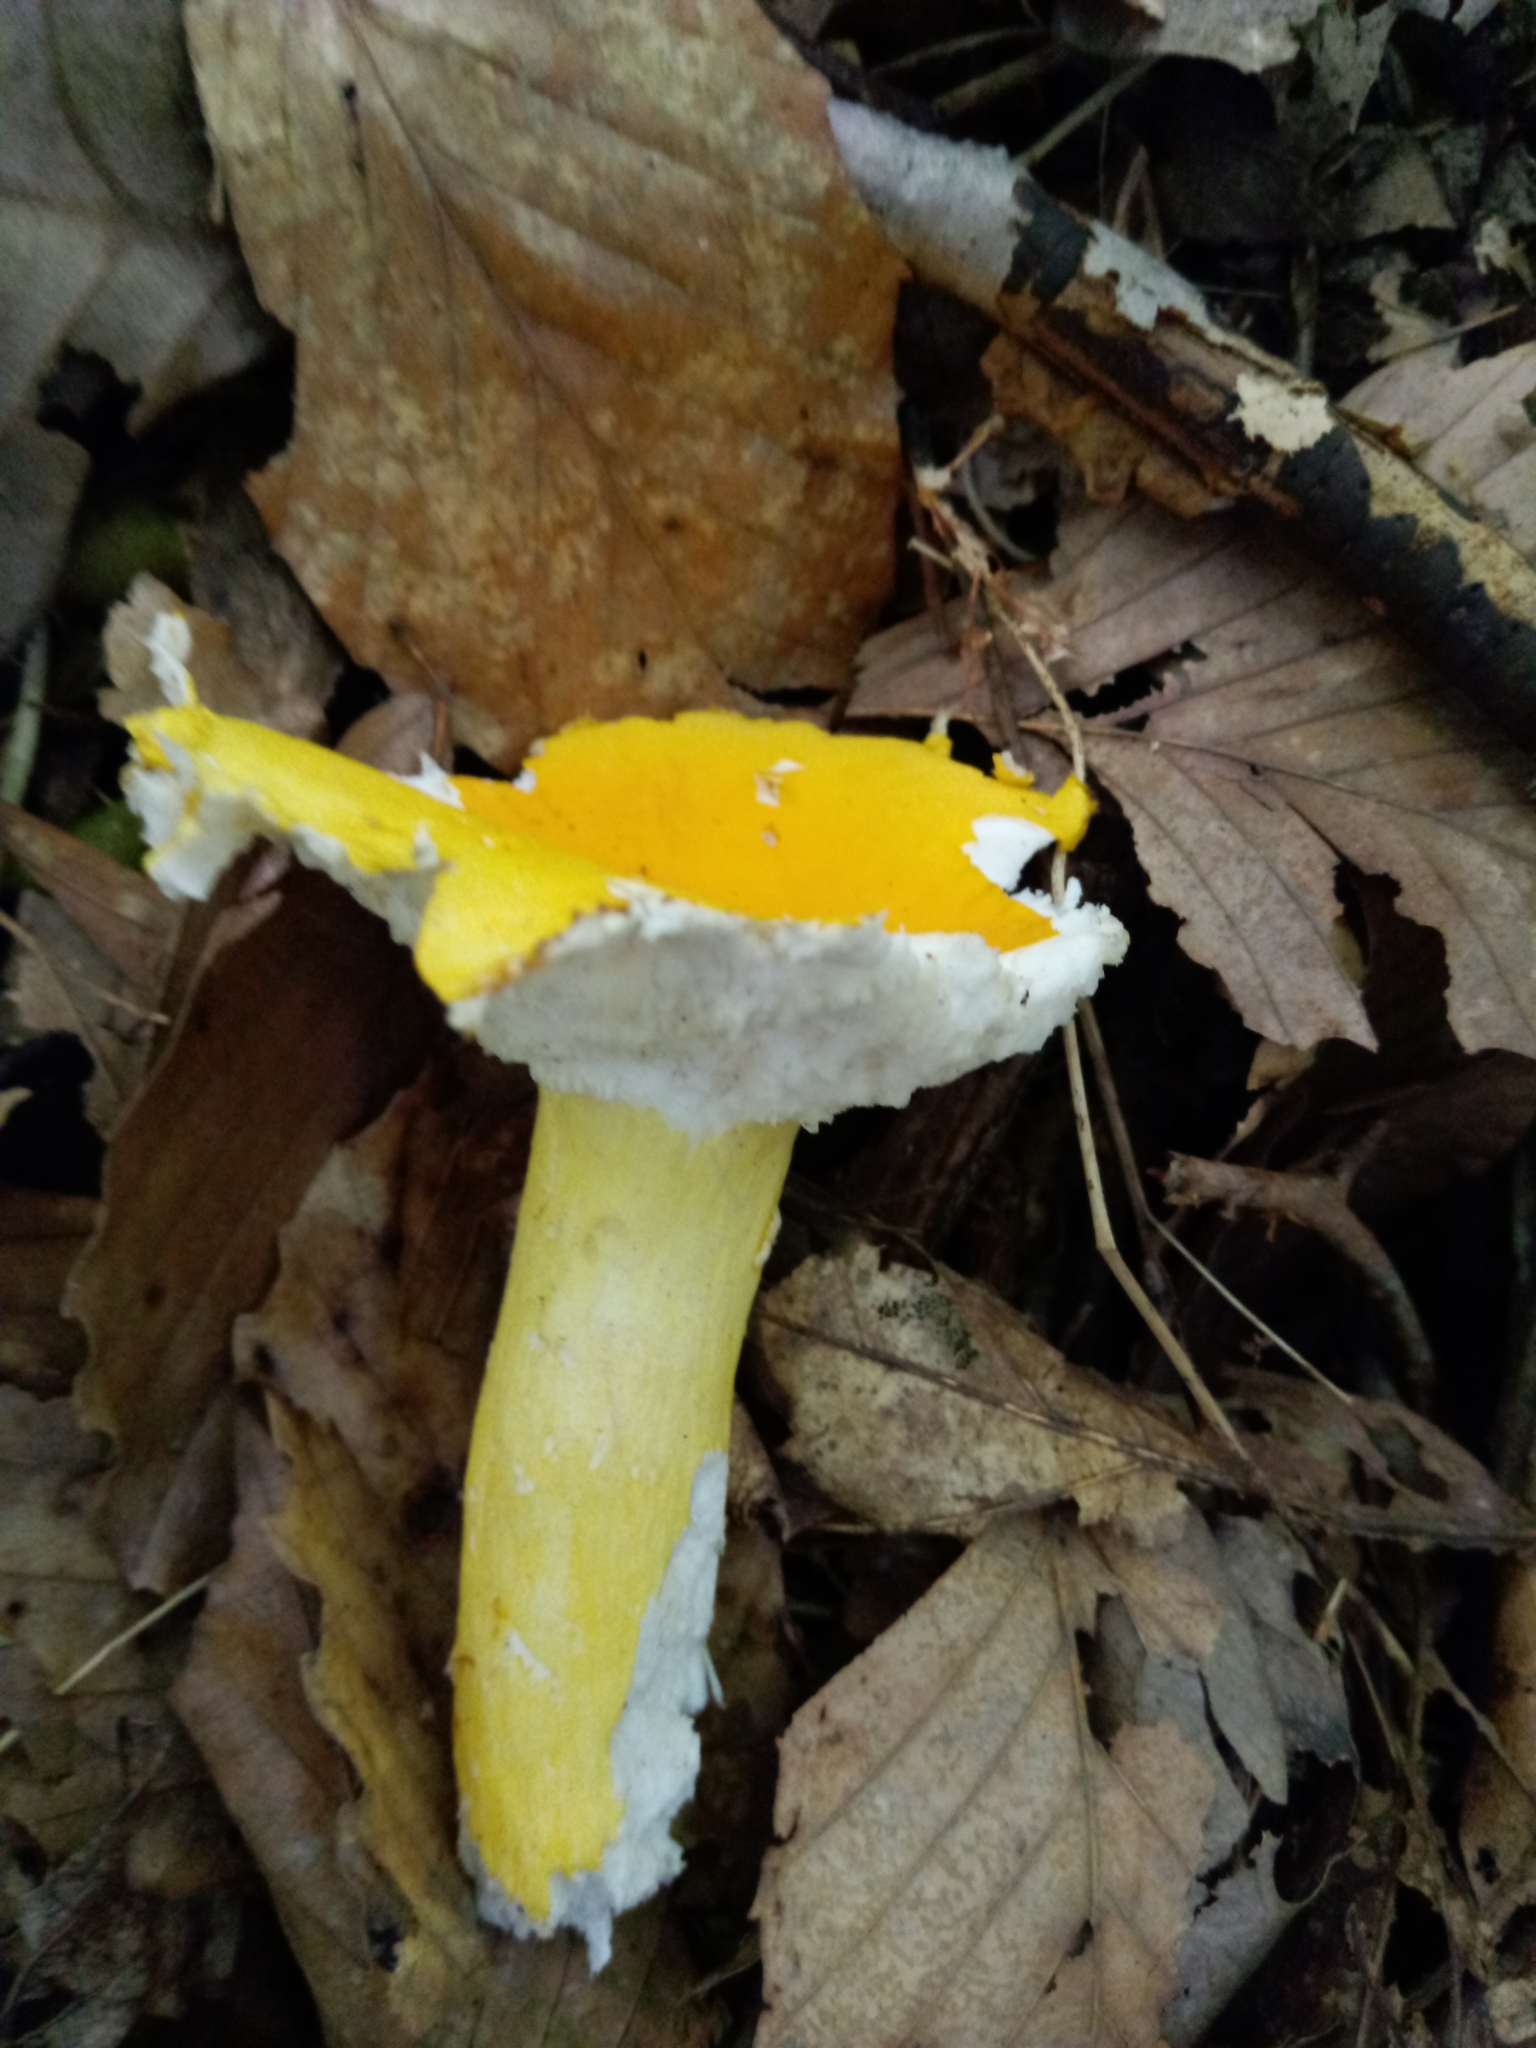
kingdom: Fungi
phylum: Basidiomycota
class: Agaricomycetes
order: Russulales
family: Russulaceae
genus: Russula
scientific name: Russula flavida
